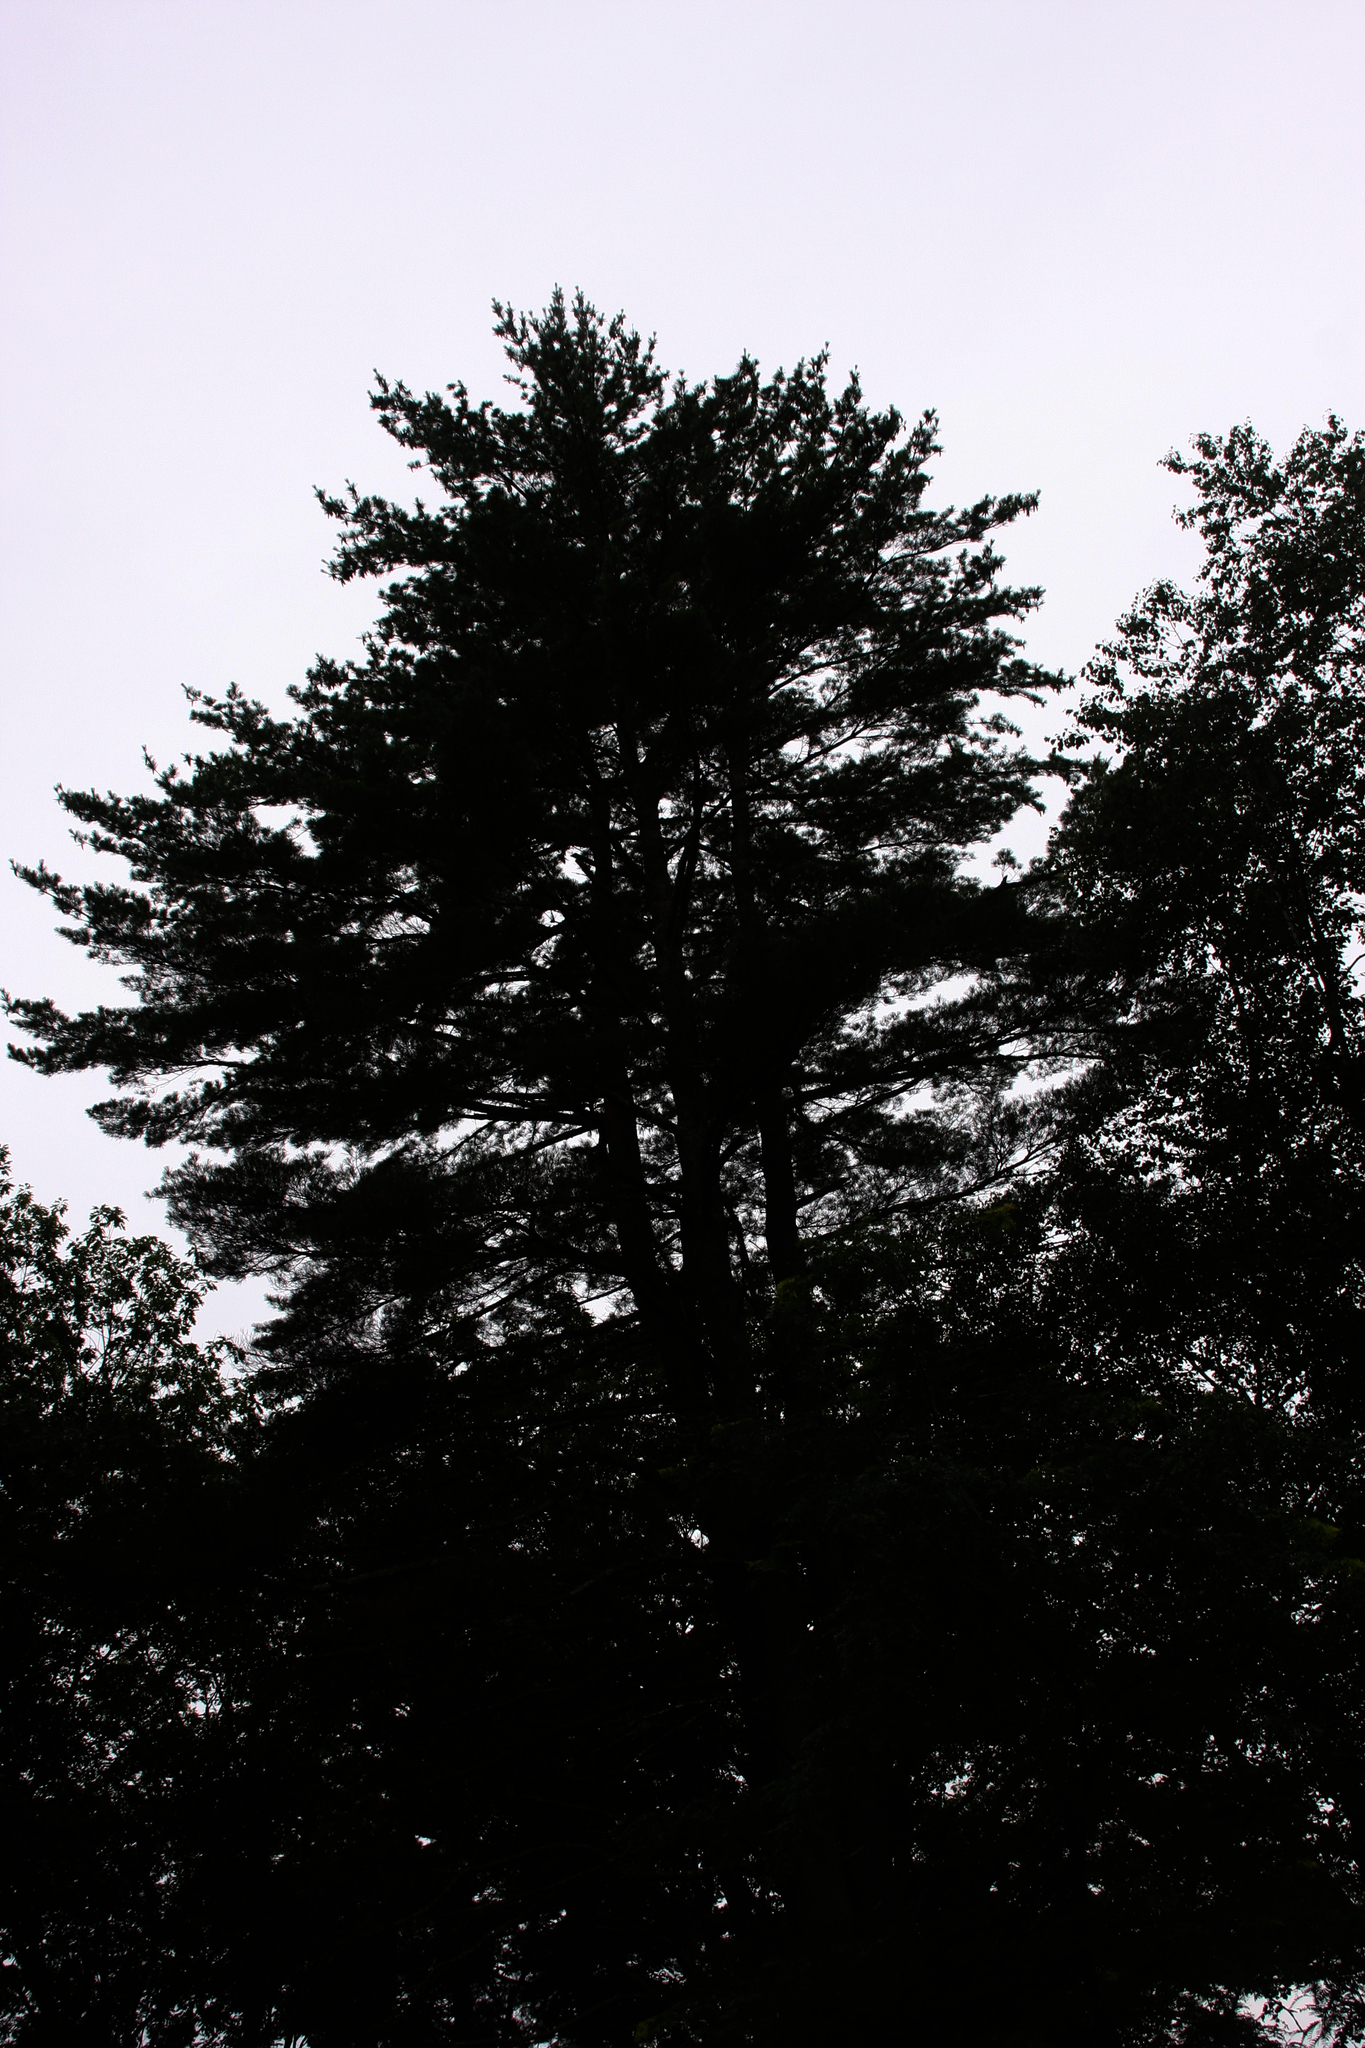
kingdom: Plantae
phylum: Tracheophyta
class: Pinopsida
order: Pinales
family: Pinaceae
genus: Pinus
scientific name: Pinus strobus
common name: Weymouth pine
